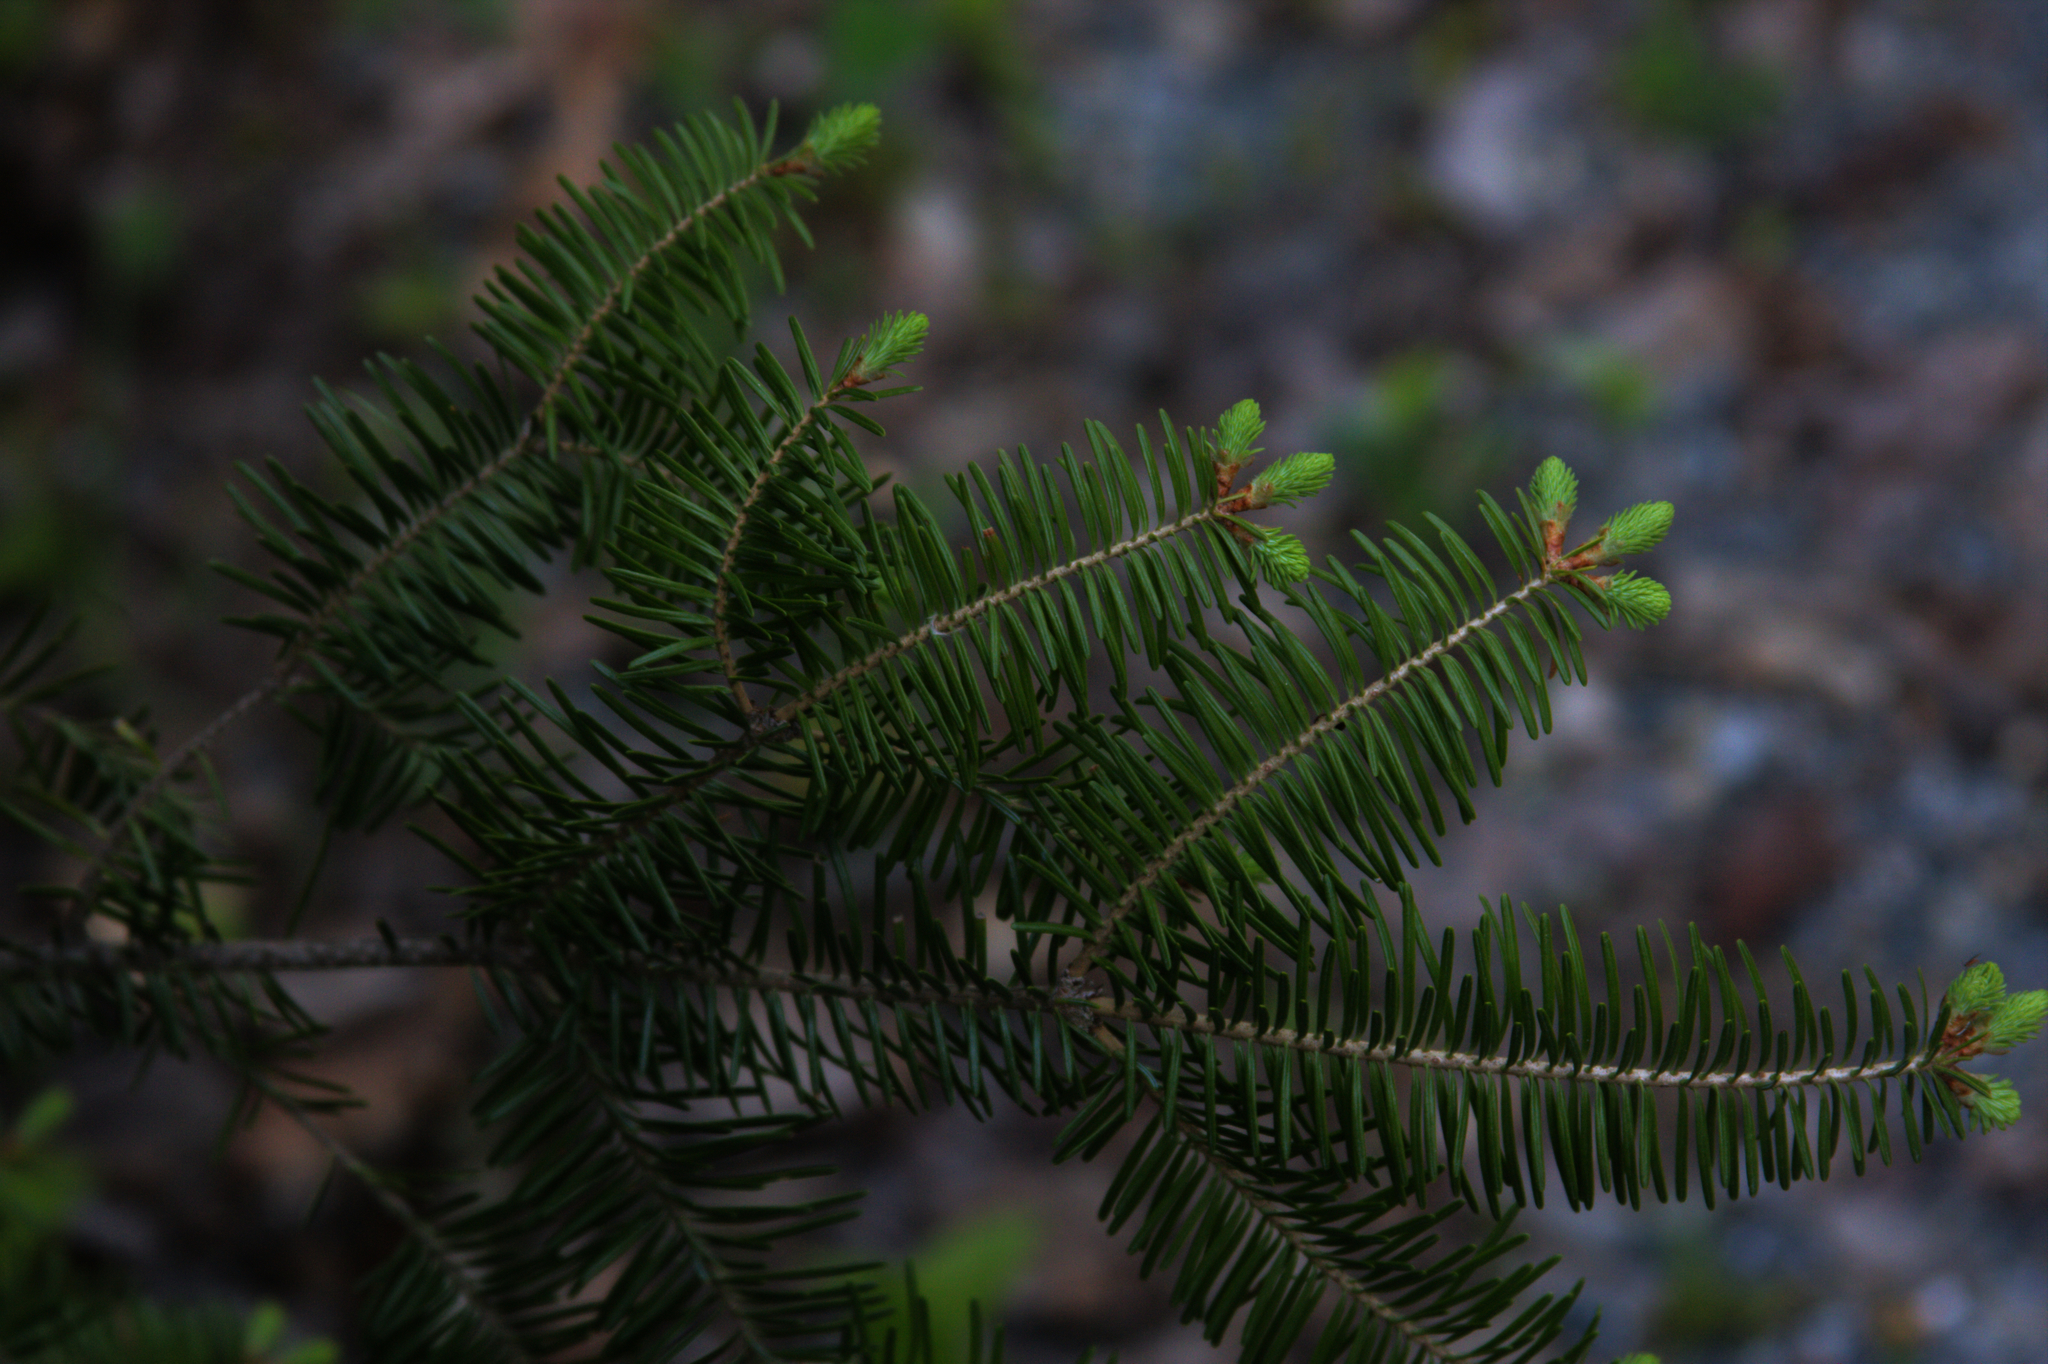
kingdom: Plantae
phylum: Tracheophyta
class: Pinopsida
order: Pinales
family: Pinaceae
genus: Abies
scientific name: Abies balsamea
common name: Balsam fir
